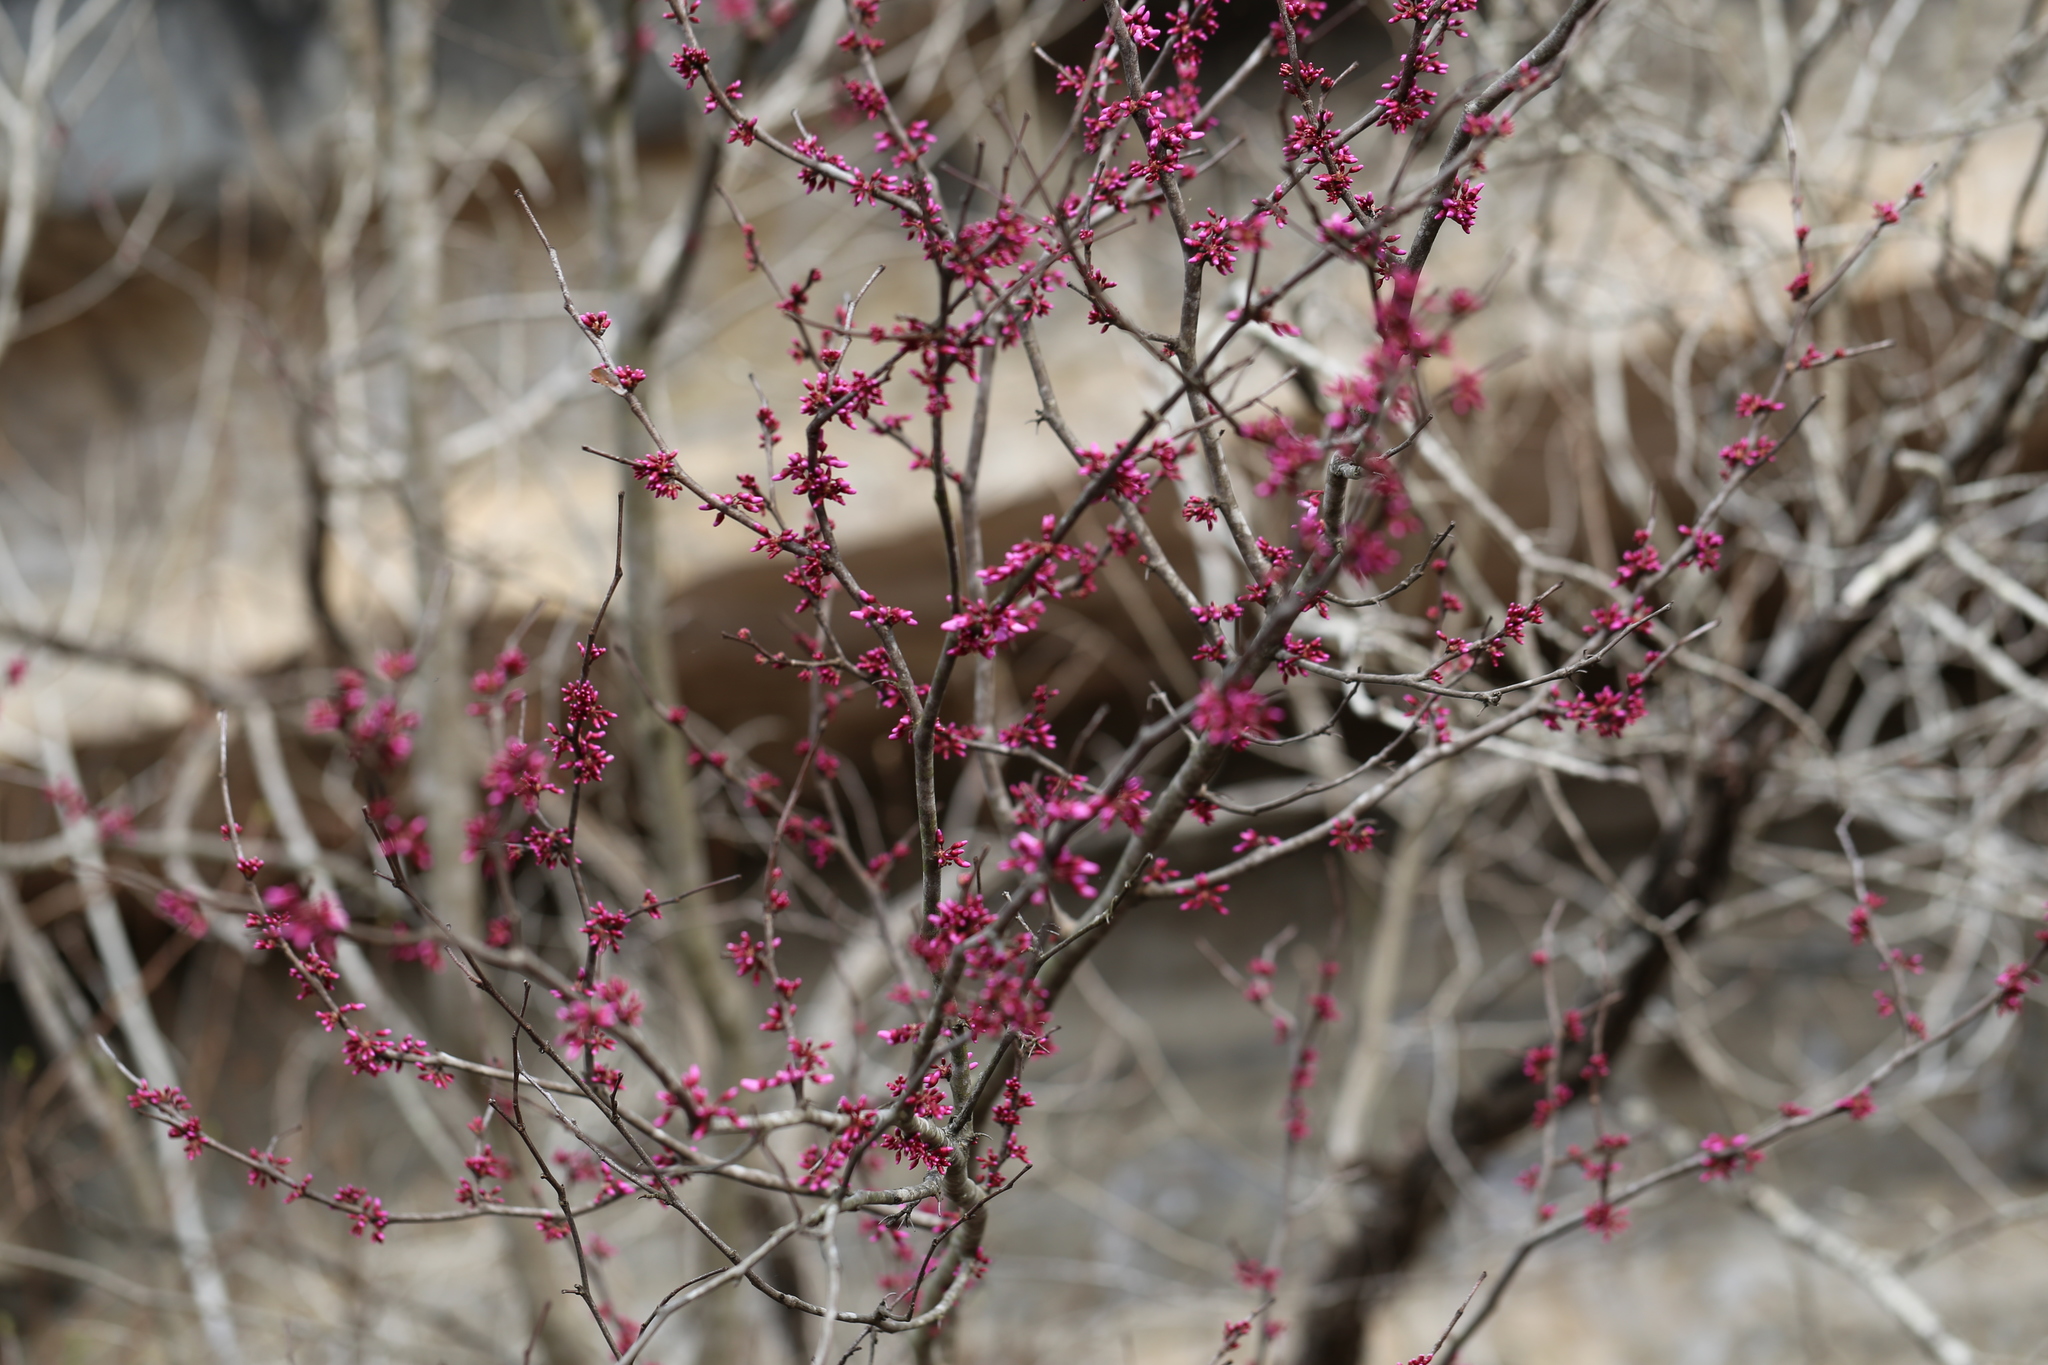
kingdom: Plantae
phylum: Tracheophyta
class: Magnoliopsida
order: Fabales
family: Fabaceae
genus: Cercis
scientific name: Cercis canadensis
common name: Eastern redbud
